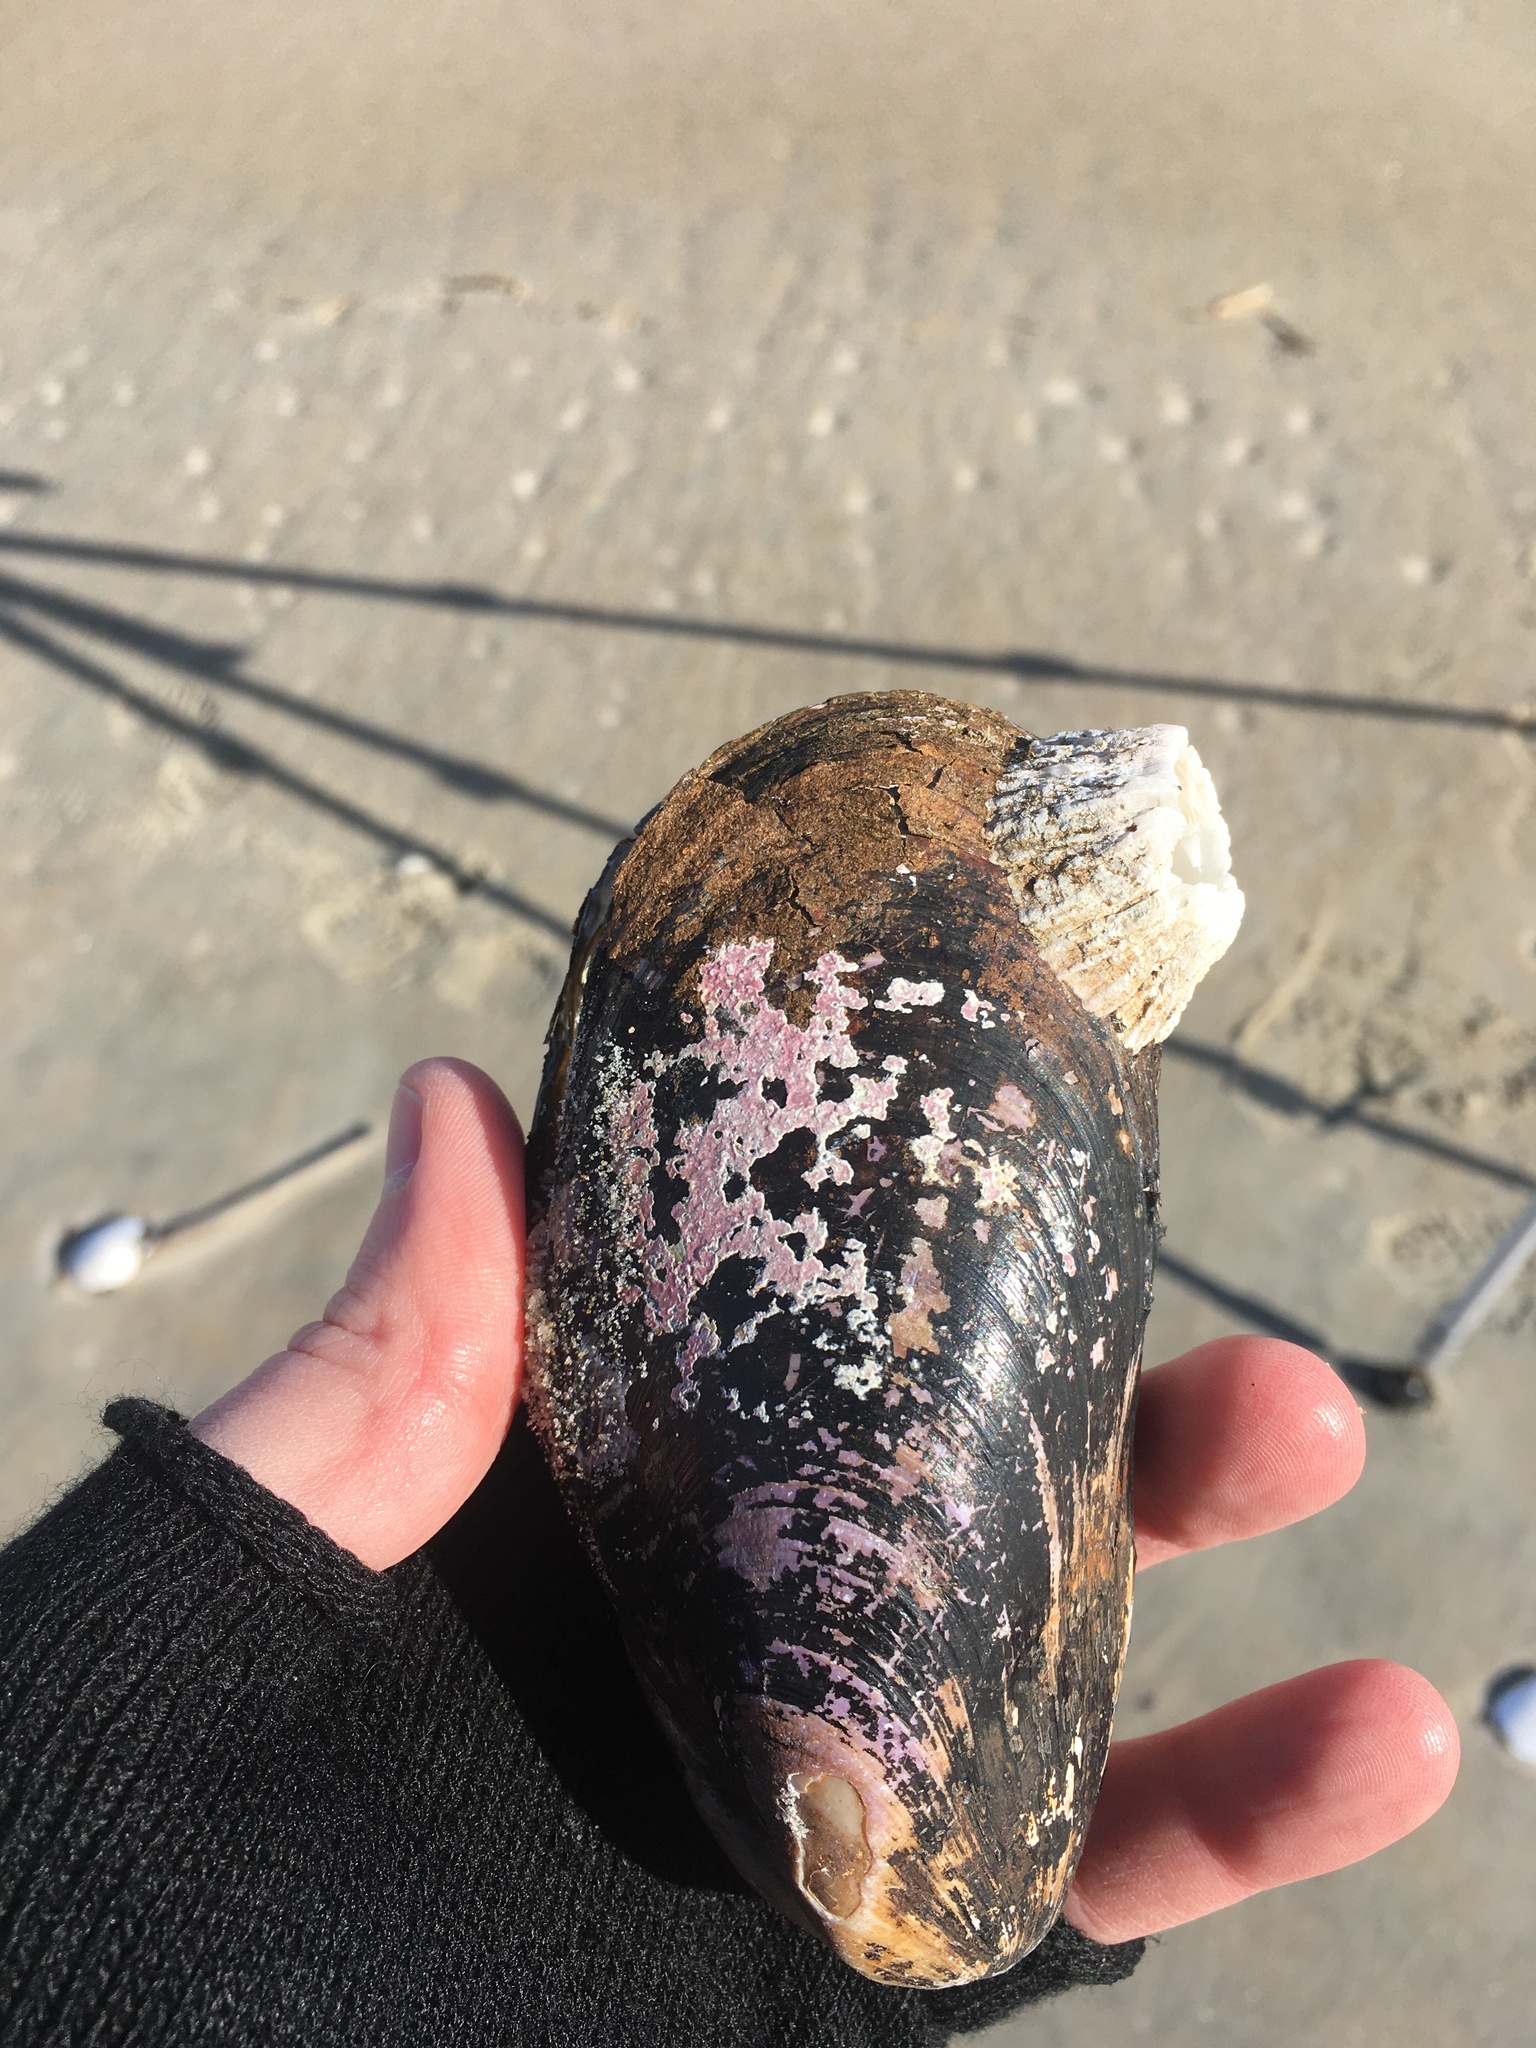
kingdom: Animalia
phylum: Mollusca
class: Bivalvia
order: Mytilida
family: Mytilidae
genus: Modiolus
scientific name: Modiolus modiolus
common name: Horse-mussel
